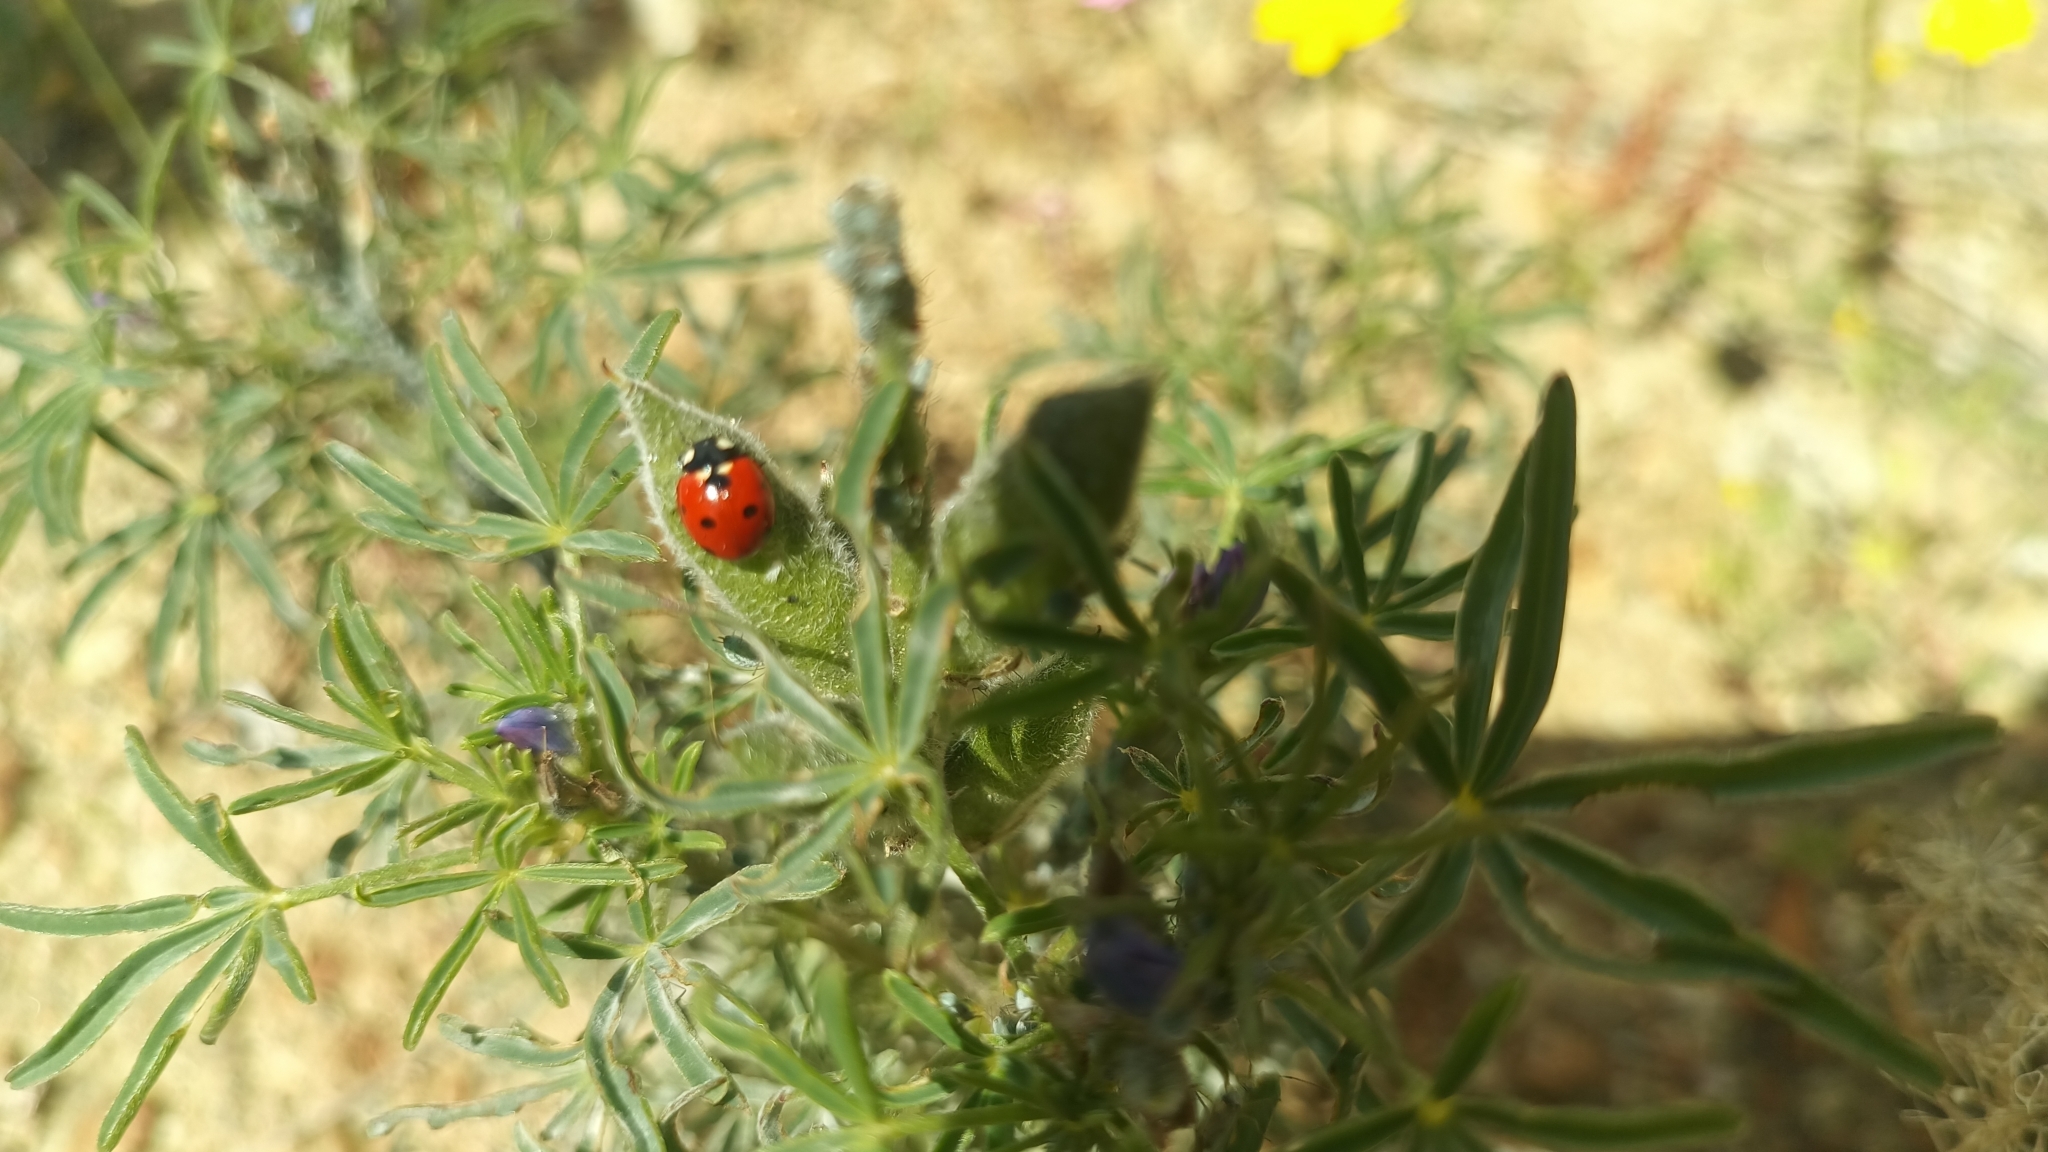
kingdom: Animalia
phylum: Arthropoda
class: Insecta
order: Coleoptera
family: Coccinellidae
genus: Coccinella
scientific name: Coccinella septempunctata
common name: Sevenspotted lady beetle
